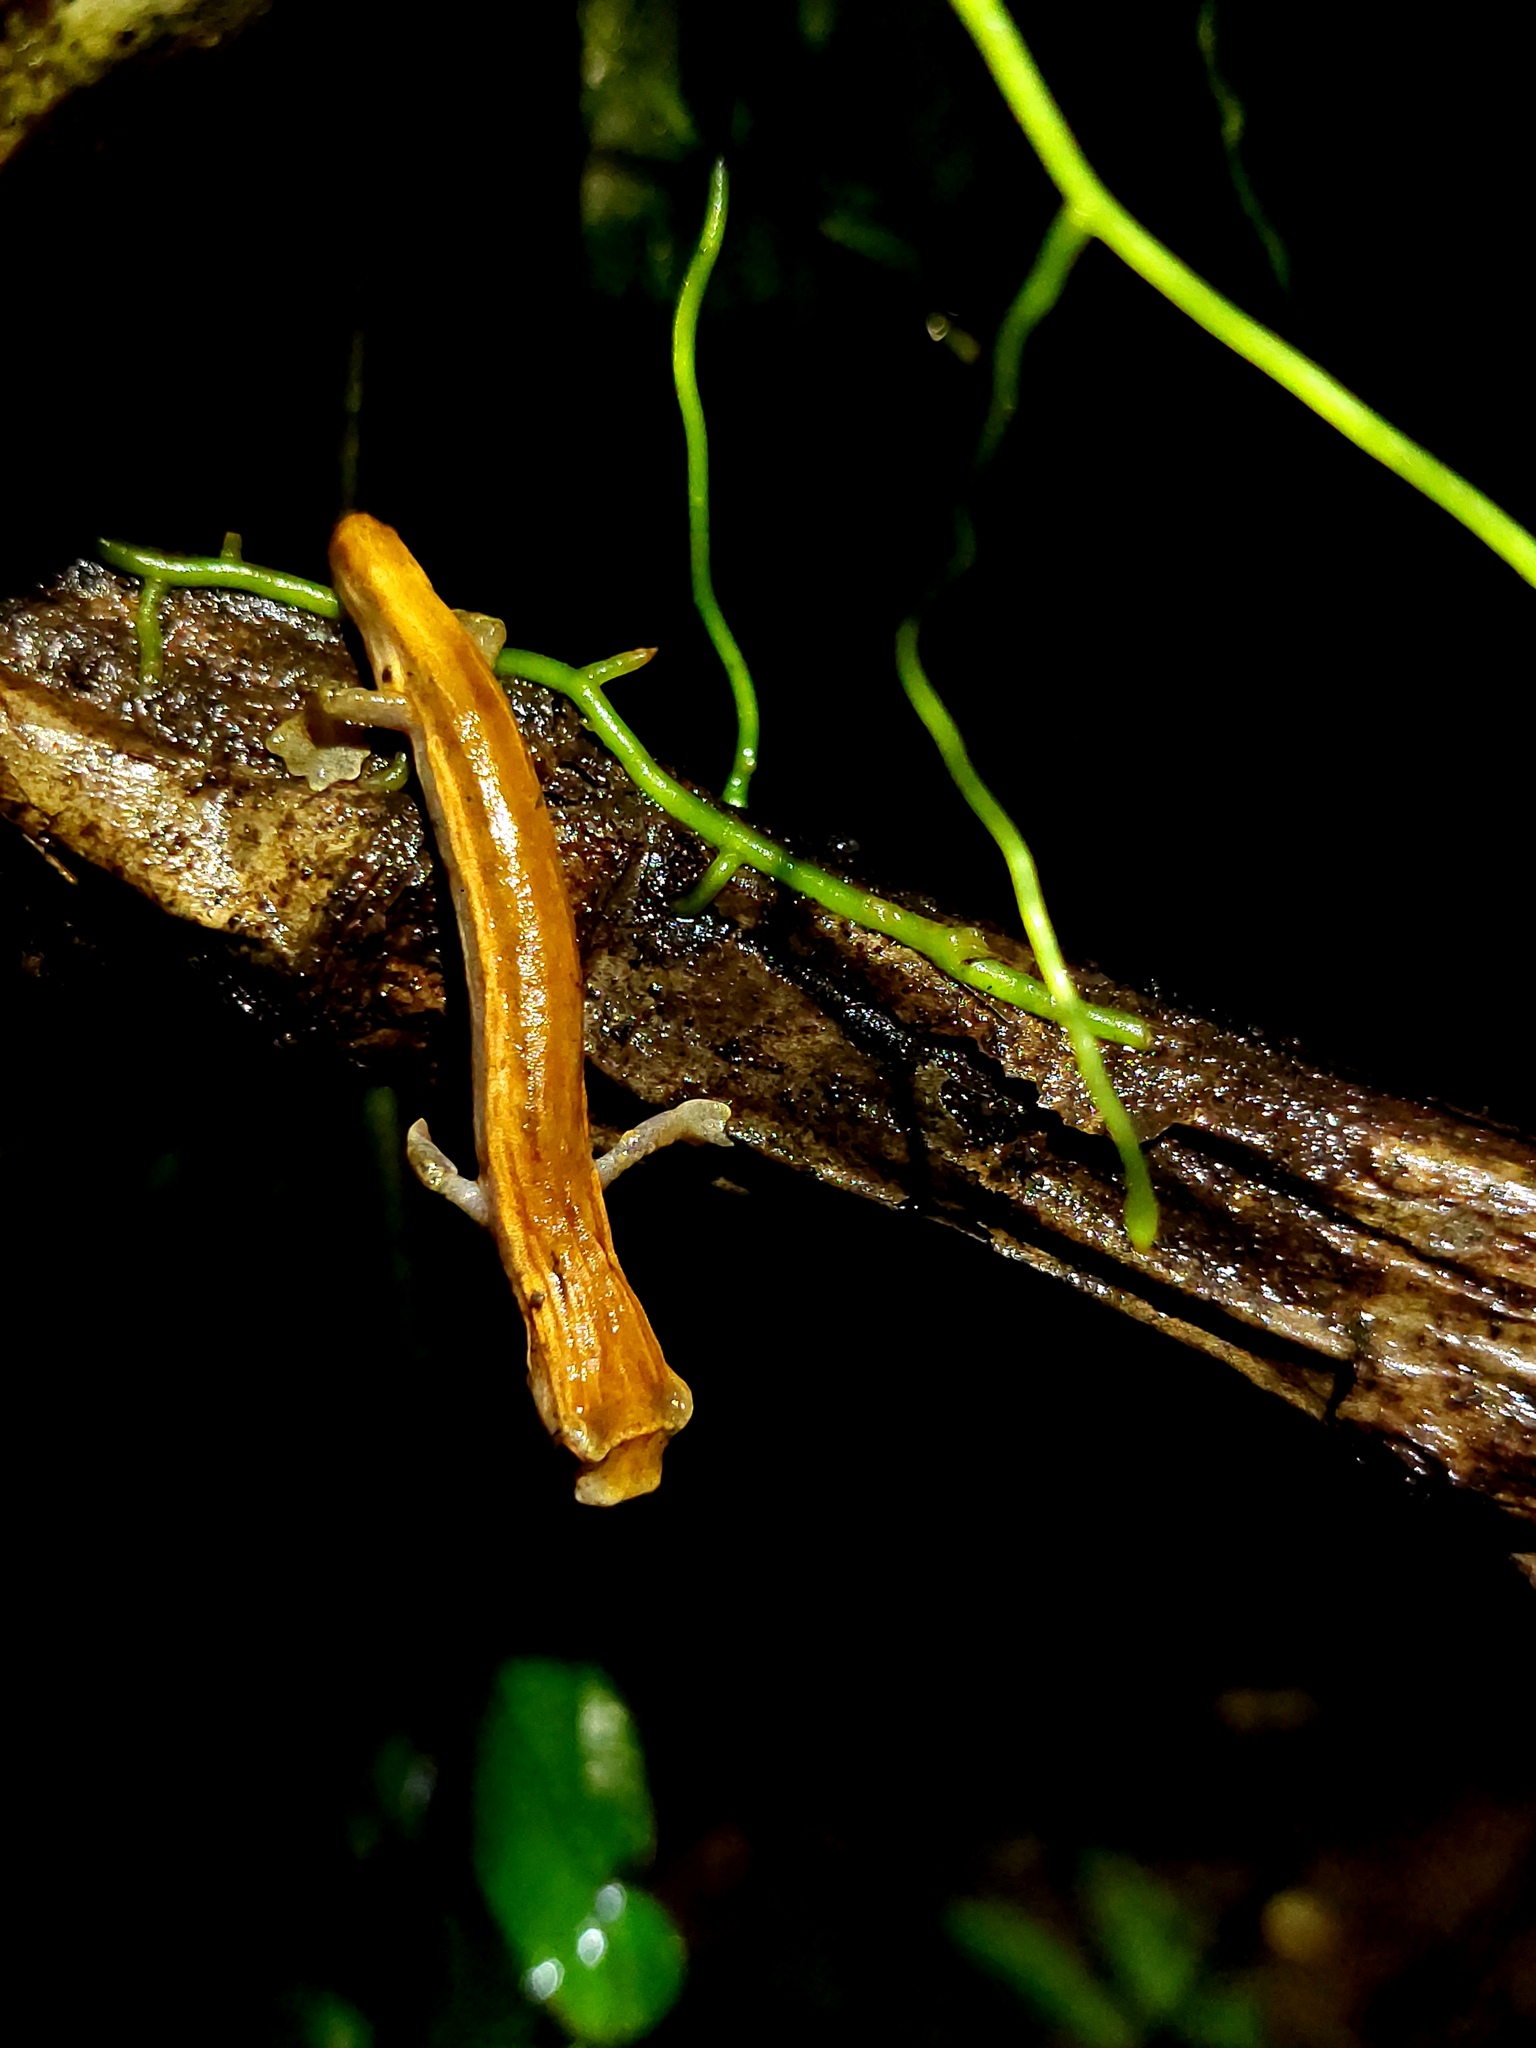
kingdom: Animalia
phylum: Chordata
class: Amphibia
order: Caudata
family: Plethodontidae
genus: Bolitoglossa
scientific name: Bolitoglossa colonnea
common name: La loma salamander
